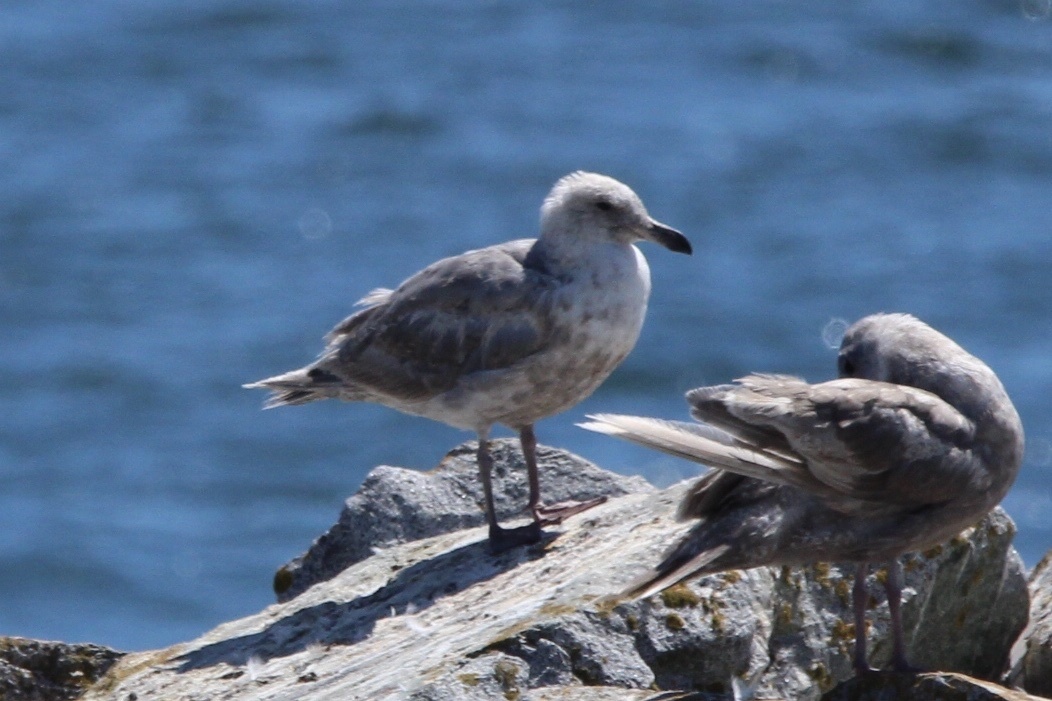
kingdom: Animalia
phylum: Chordata
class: Aves
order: Charadriiformes
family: Laridae
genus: Larus
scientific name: Larus glaucescens
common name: Glaucous-winged gull
